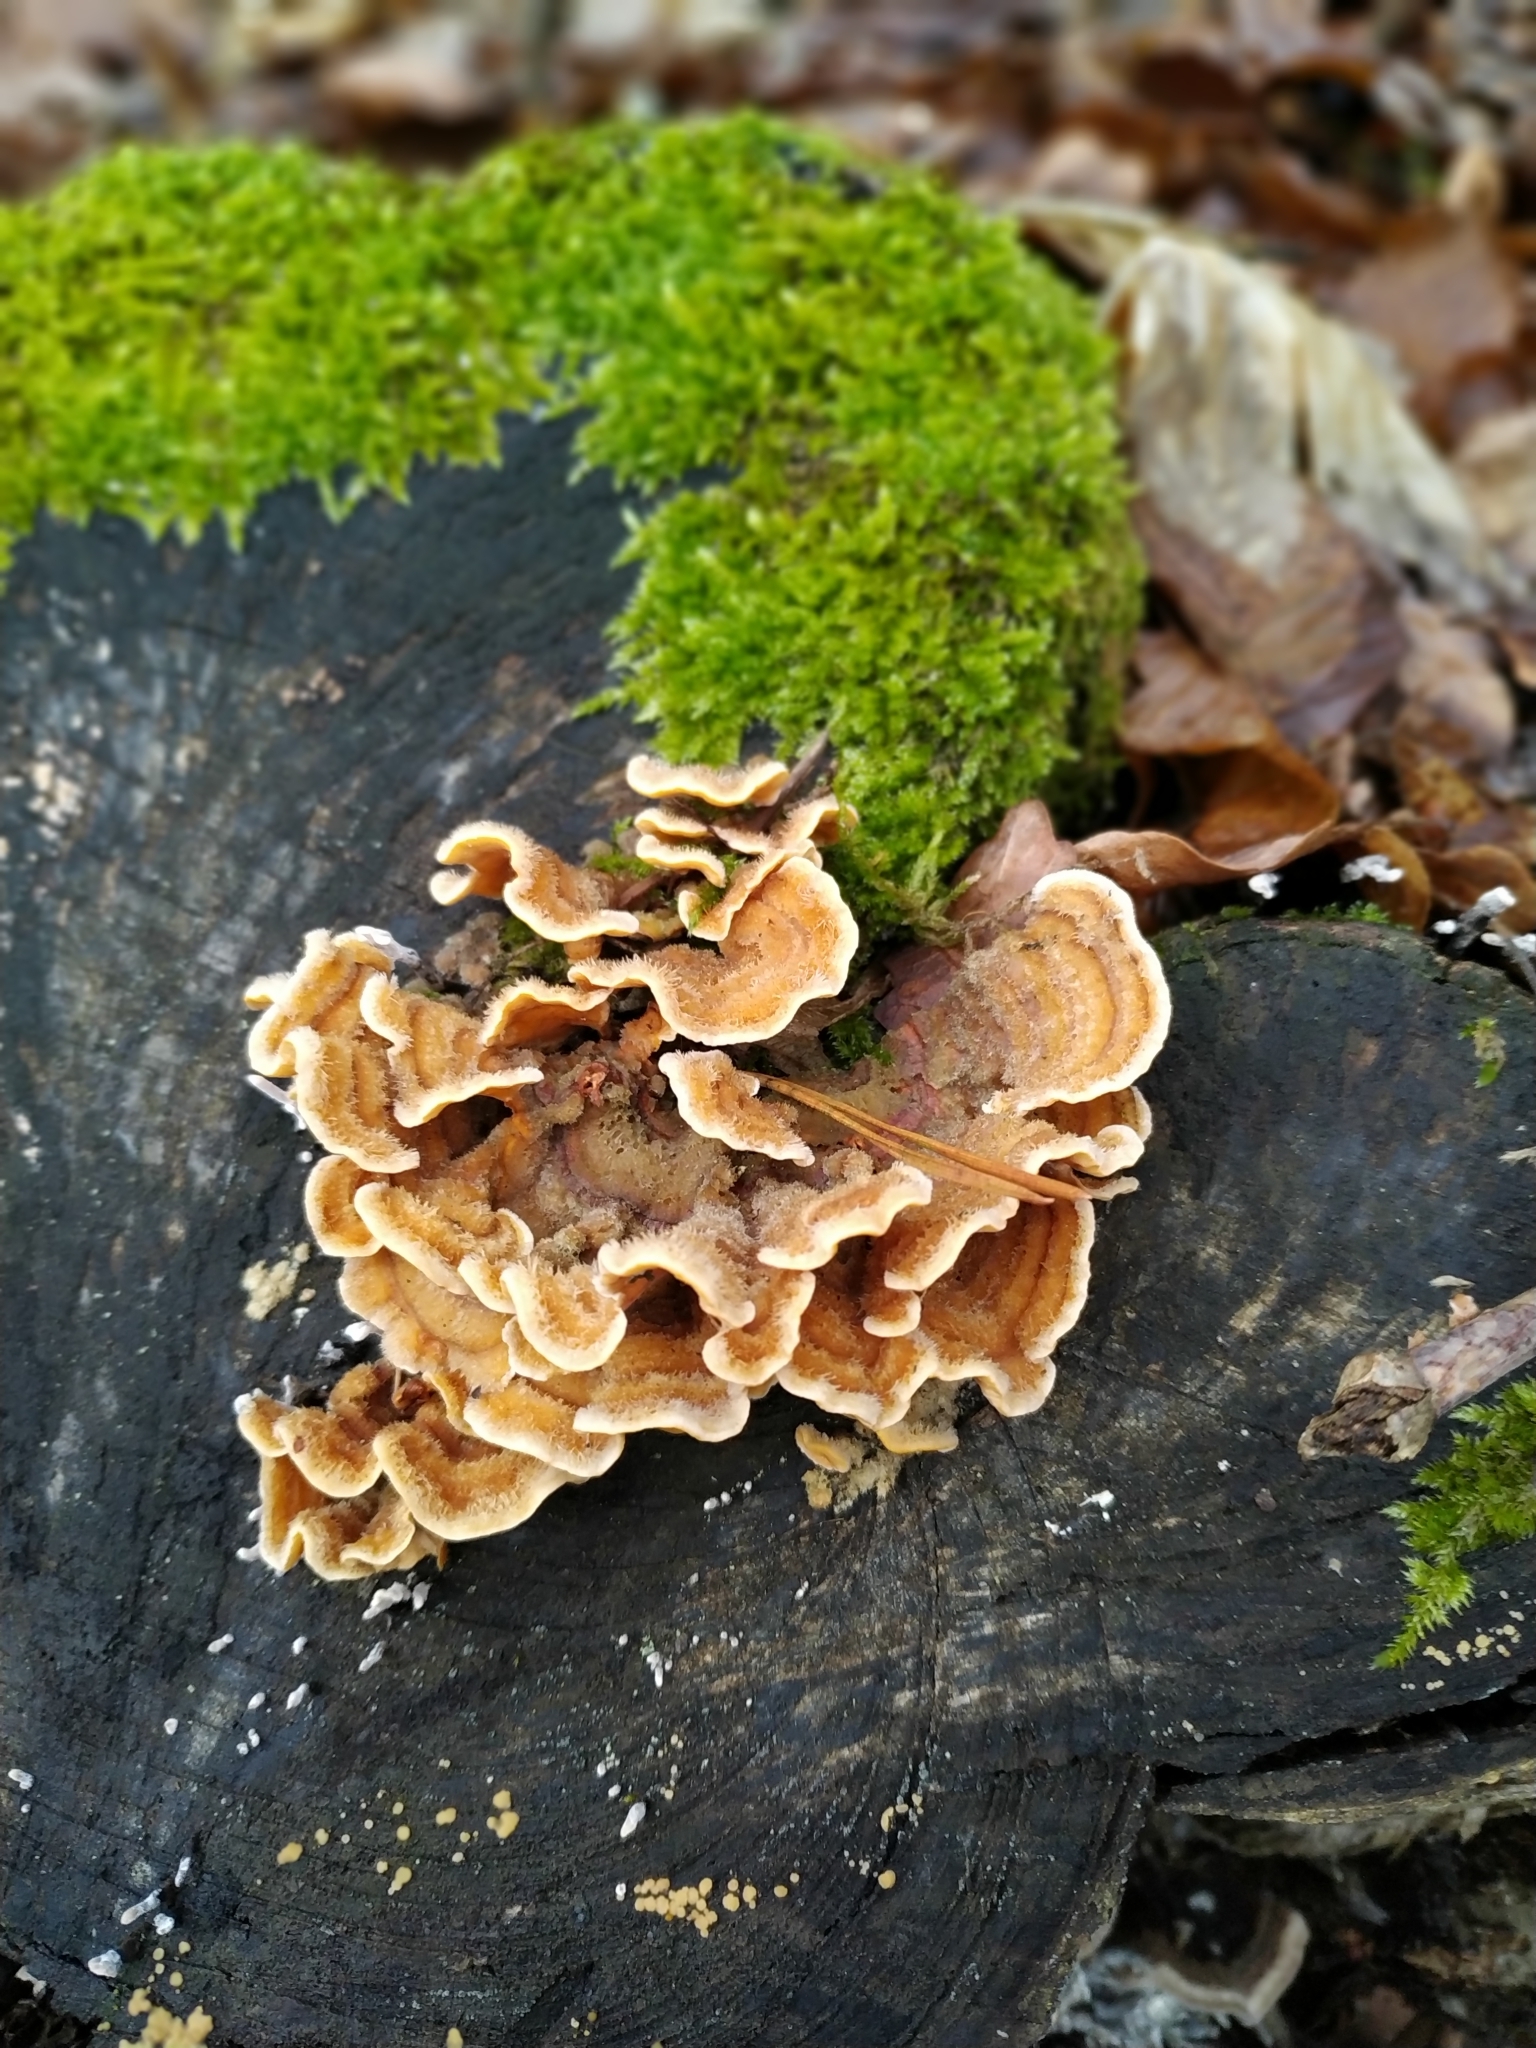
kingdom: Fungi
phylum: Basidiomycota
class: Agaricomycetes
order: Russulales
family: Stereaceae
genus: Stereum
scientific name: Stereum hirsutum
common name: Hairy curtain crust
